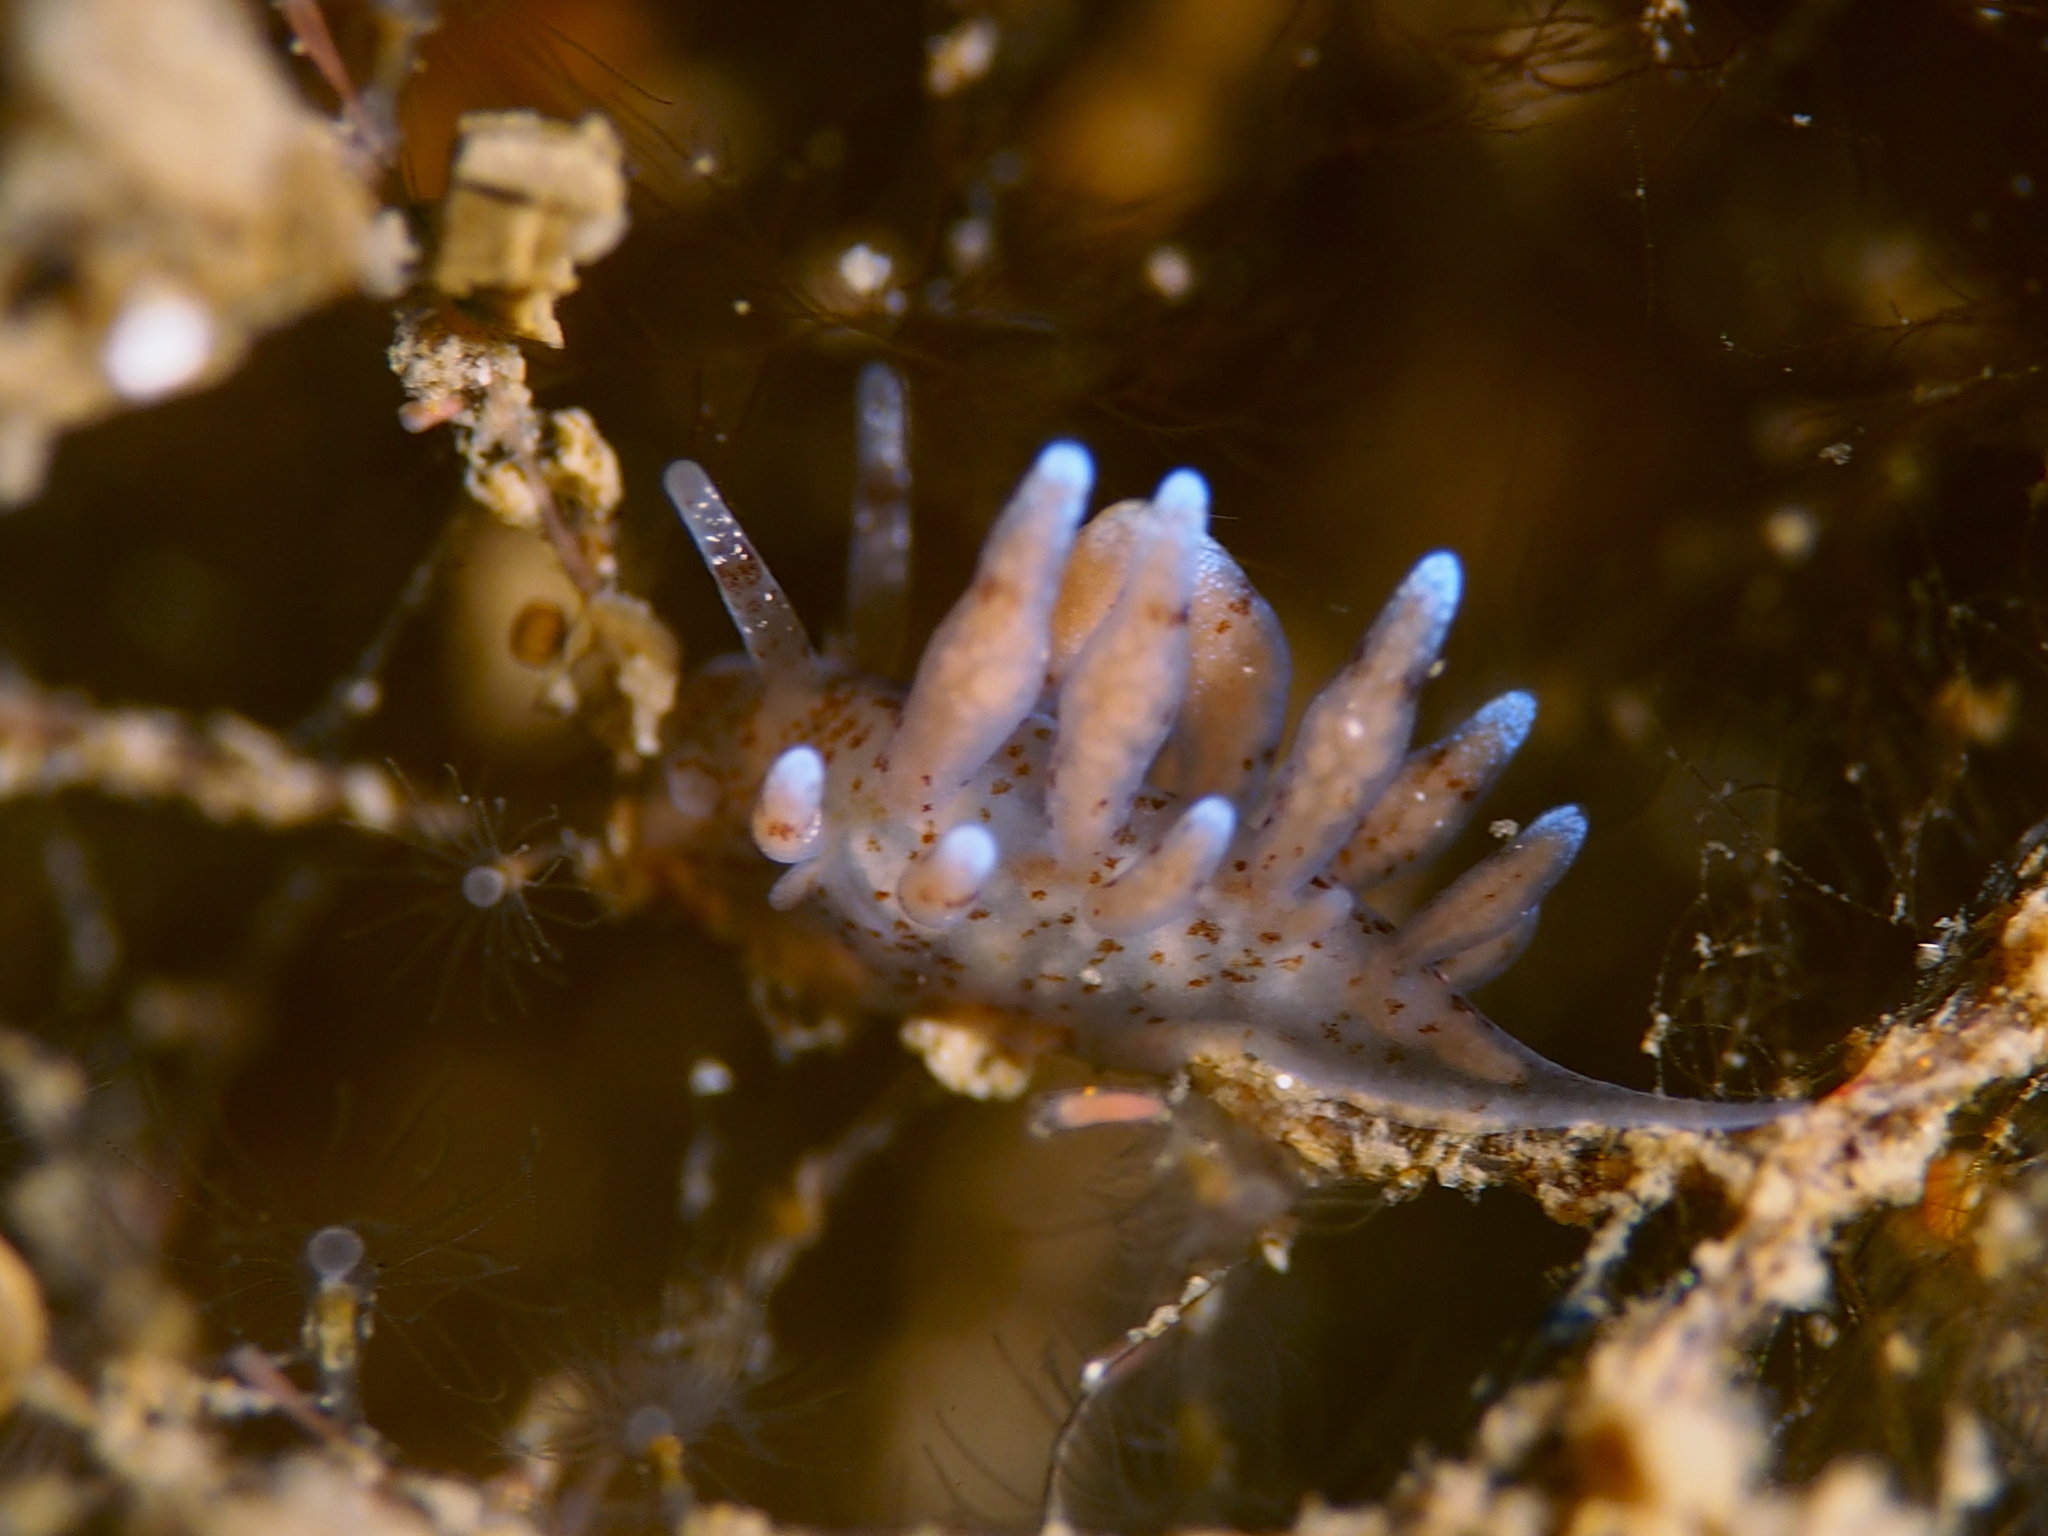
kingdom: Animalia
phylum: Mollusca
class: Gastropoda
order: Nudibranchia
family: Eubranchidae
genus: Eubranchus
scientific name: Eubranchus rupium
